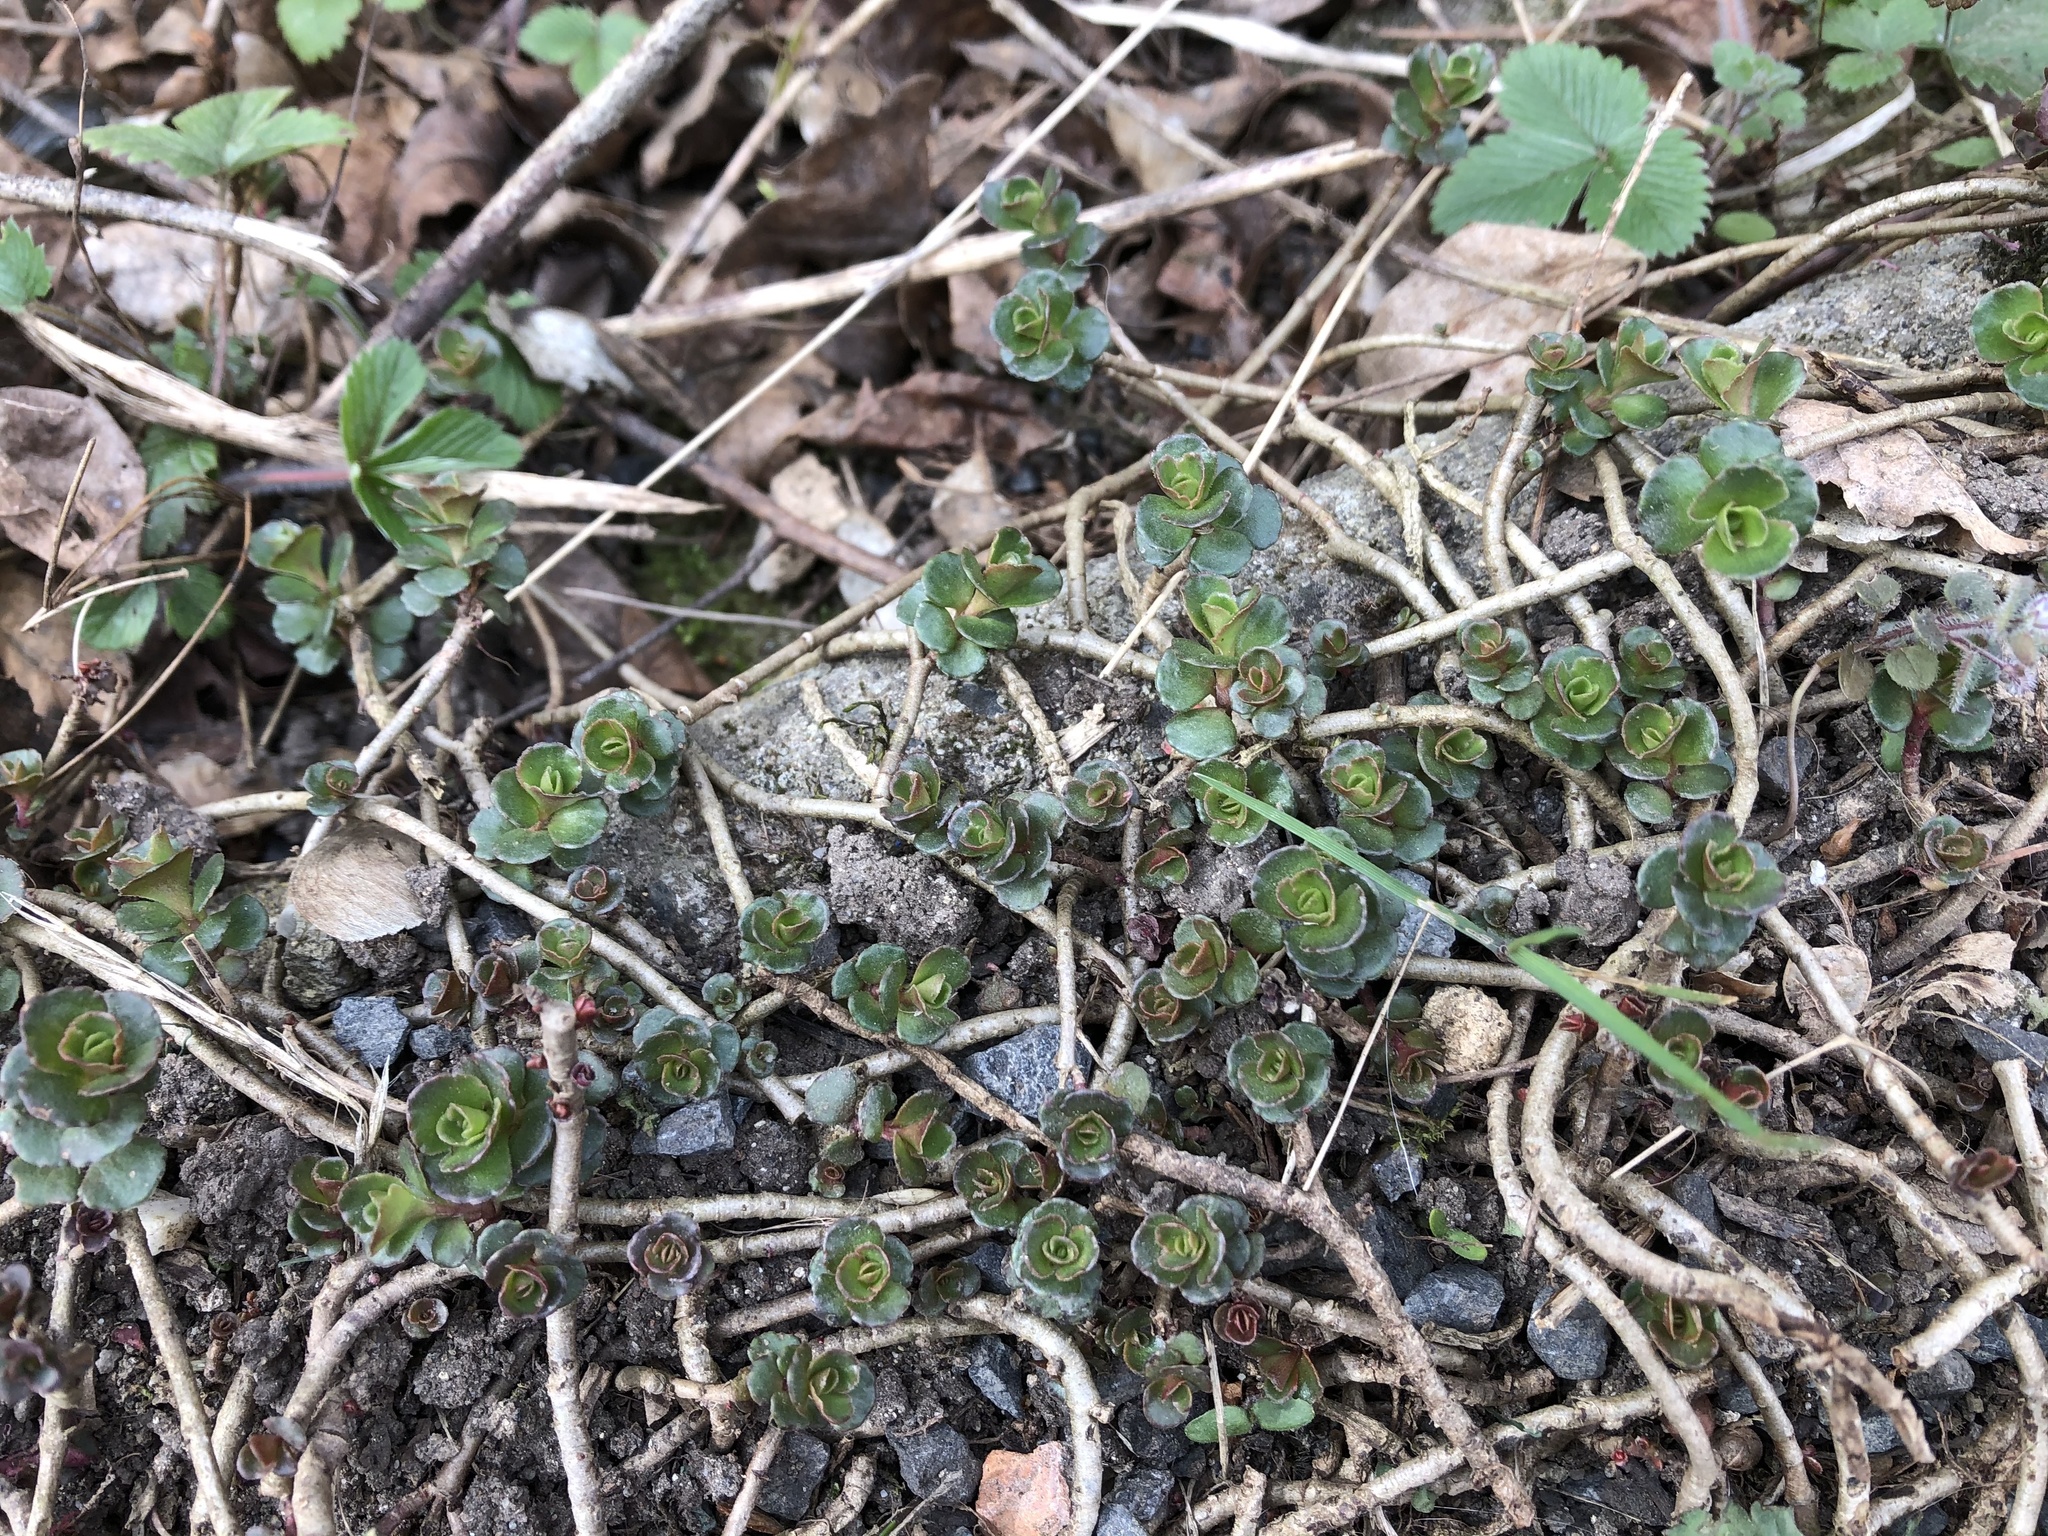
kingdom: Plantae
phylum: Tracheophyta
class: Magnoliopsida
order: Saxifragales
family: Crassulaceae
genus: Phedimus
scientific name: Phedimus spurius
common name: Caucasian stonecrop
